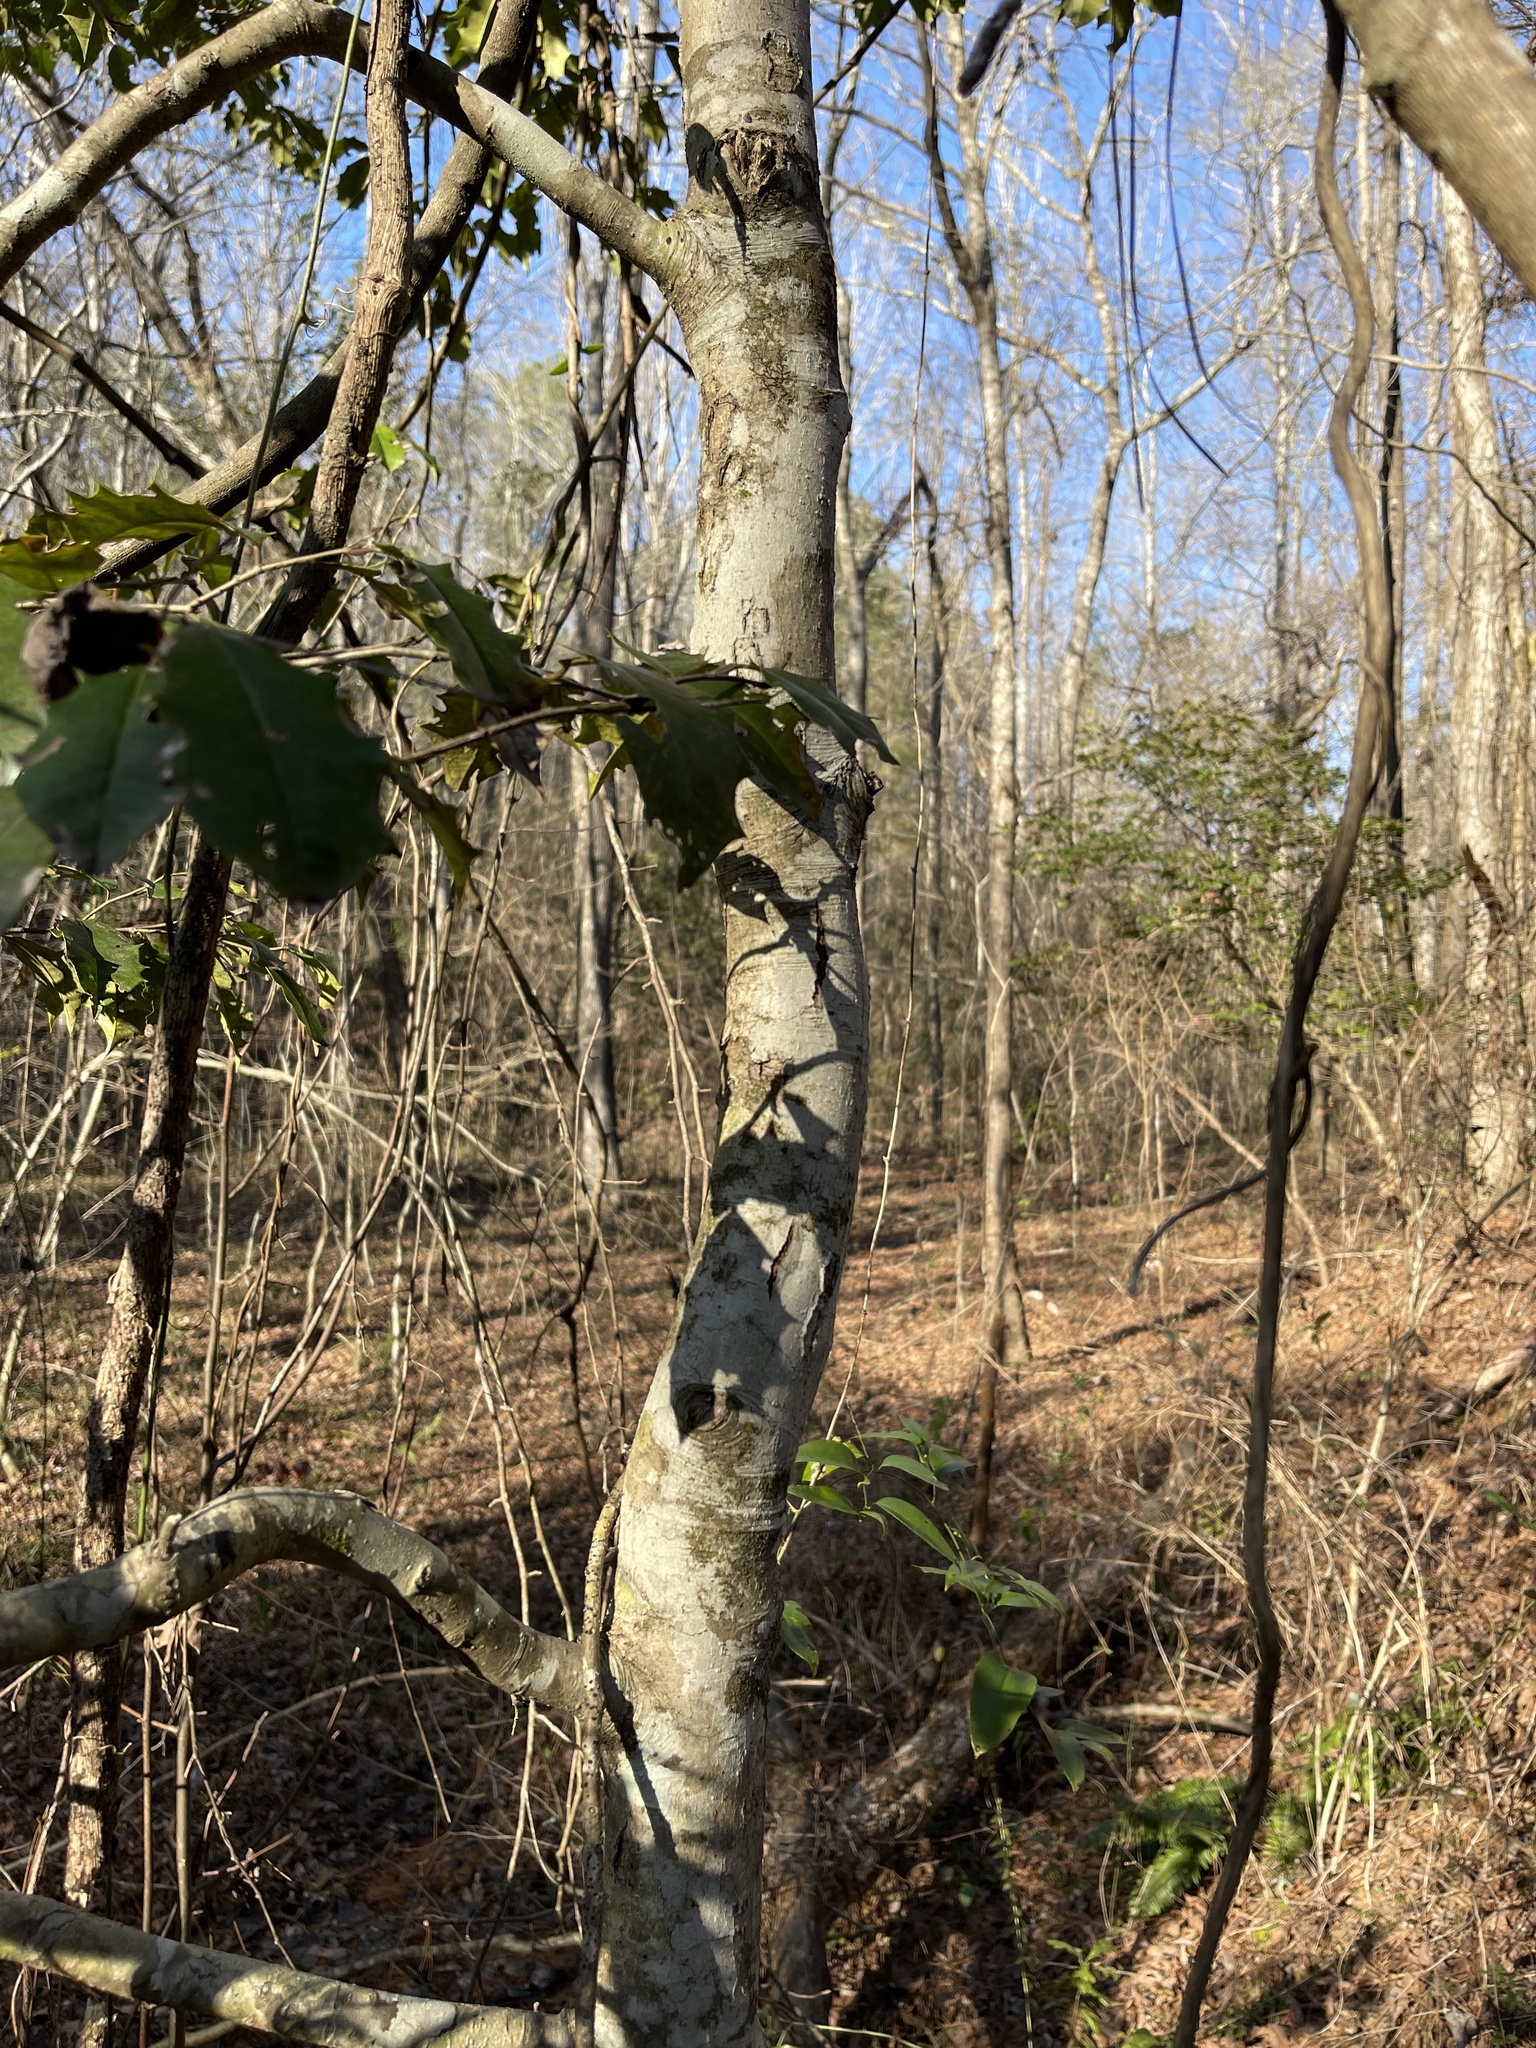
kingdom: Plantae
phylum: Tracheophyta
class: Magnoliopsida
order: Aquifoliales
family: Aquifoliaceae
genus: Ilex
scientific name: Ilex opaca
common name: American holly
